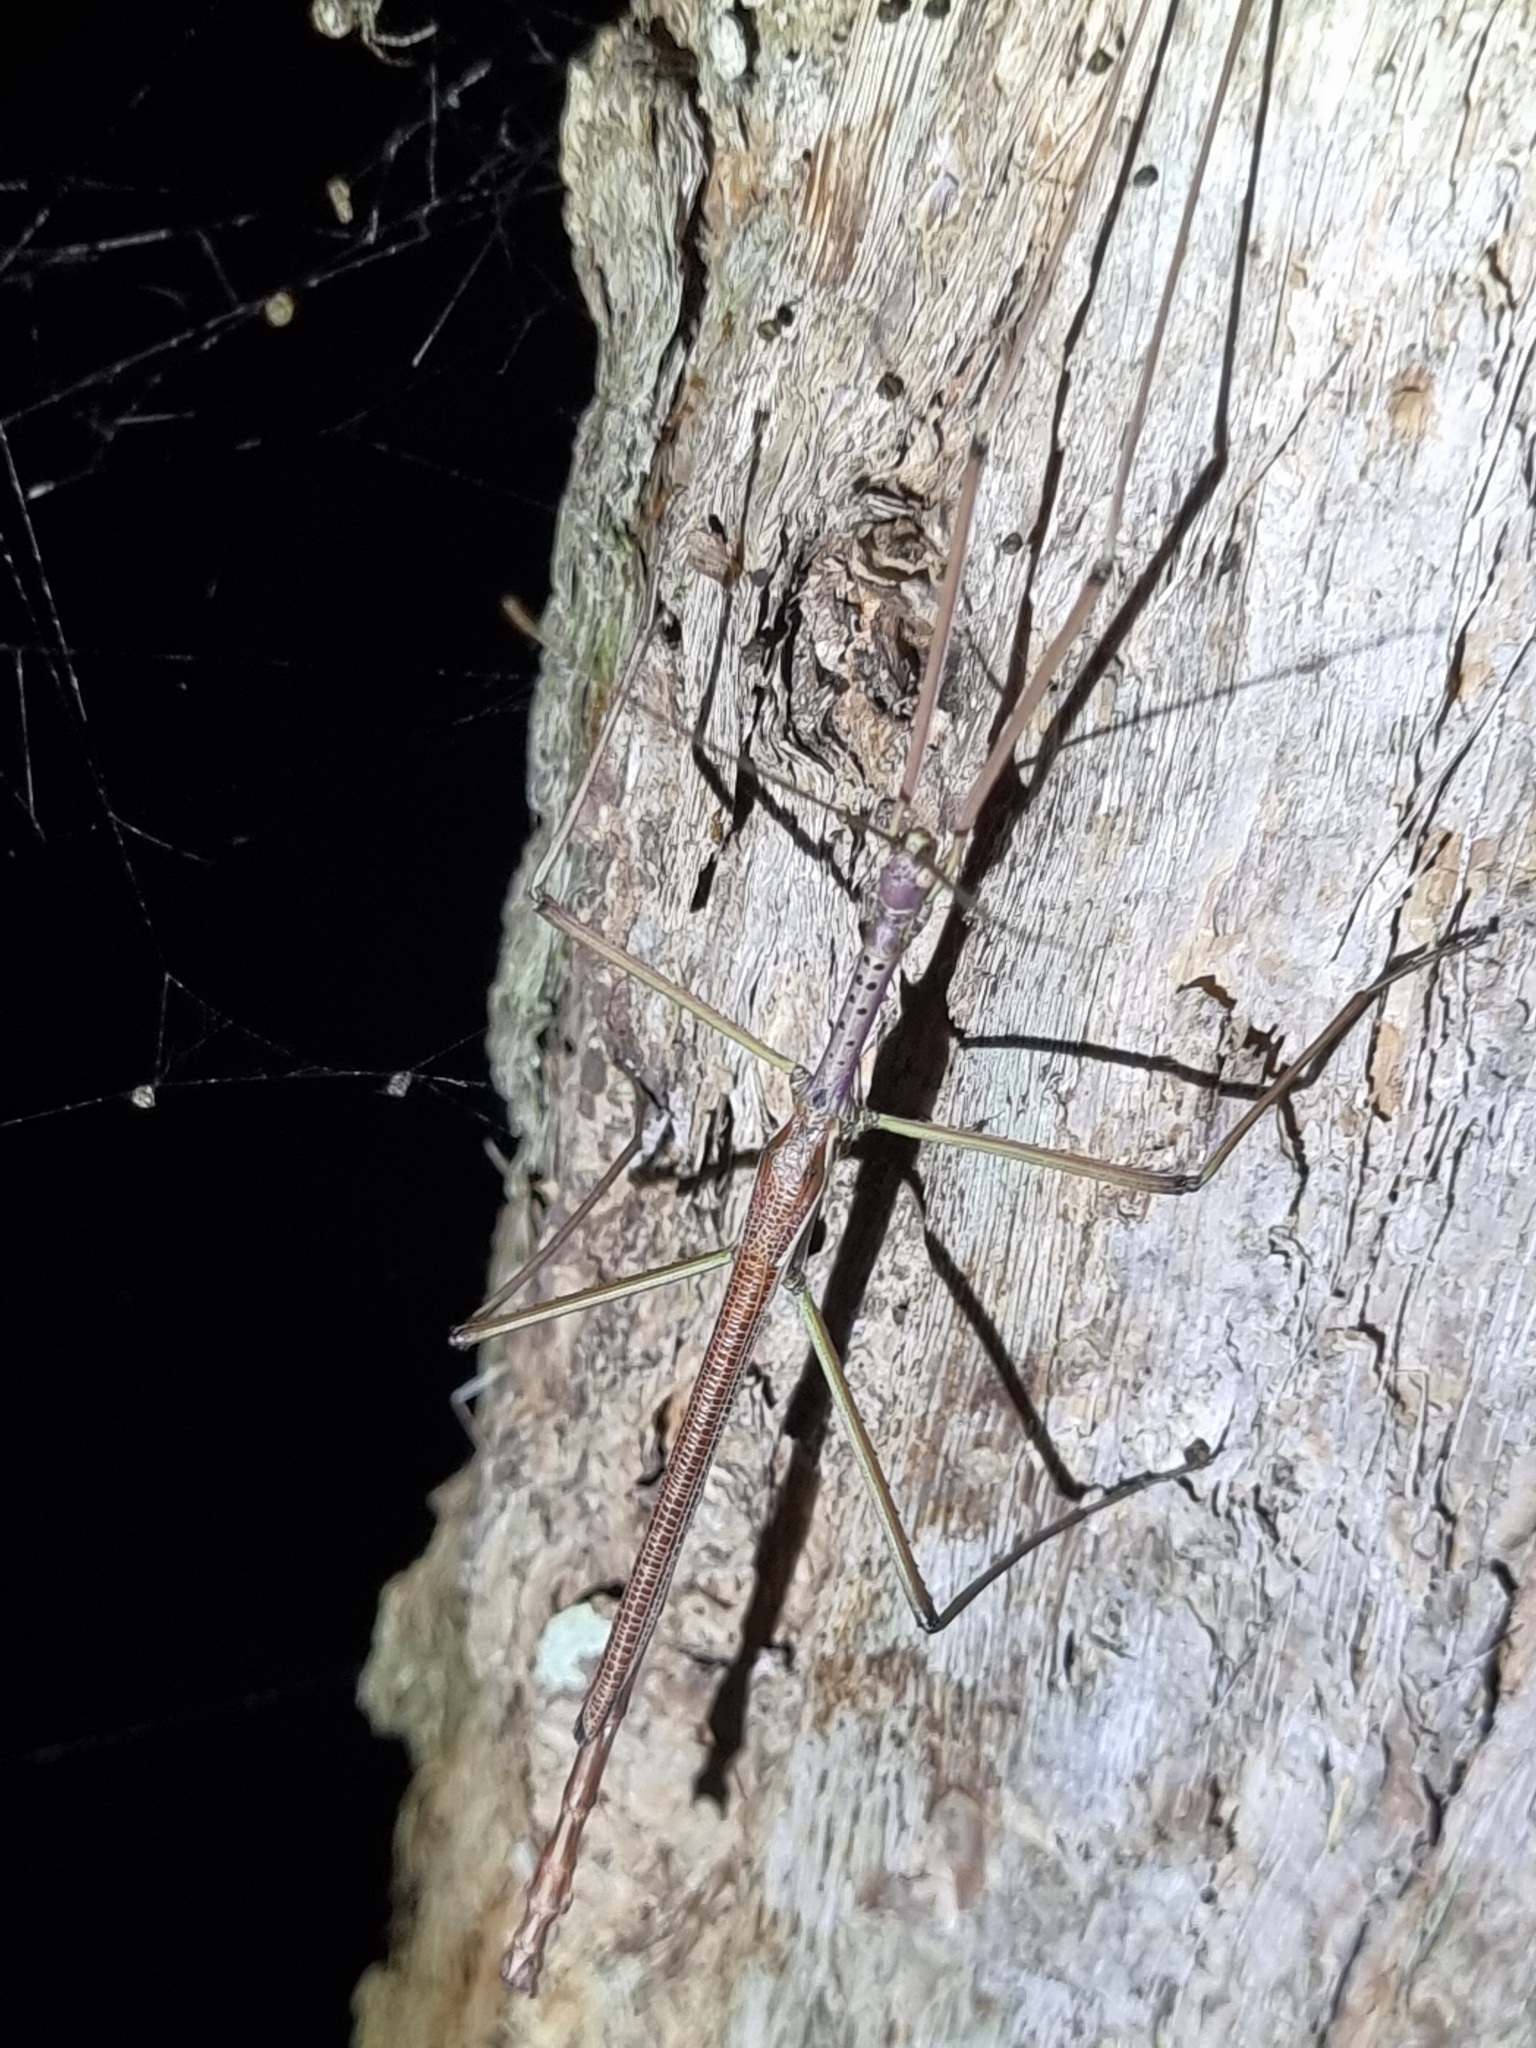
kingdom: Animalia
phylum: Arthropoda
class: Insecta
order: Phasmida
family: Phasmatidae
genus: Anchiale
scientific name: Anchiale austrotessulata
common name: Tessellated stick-insect
